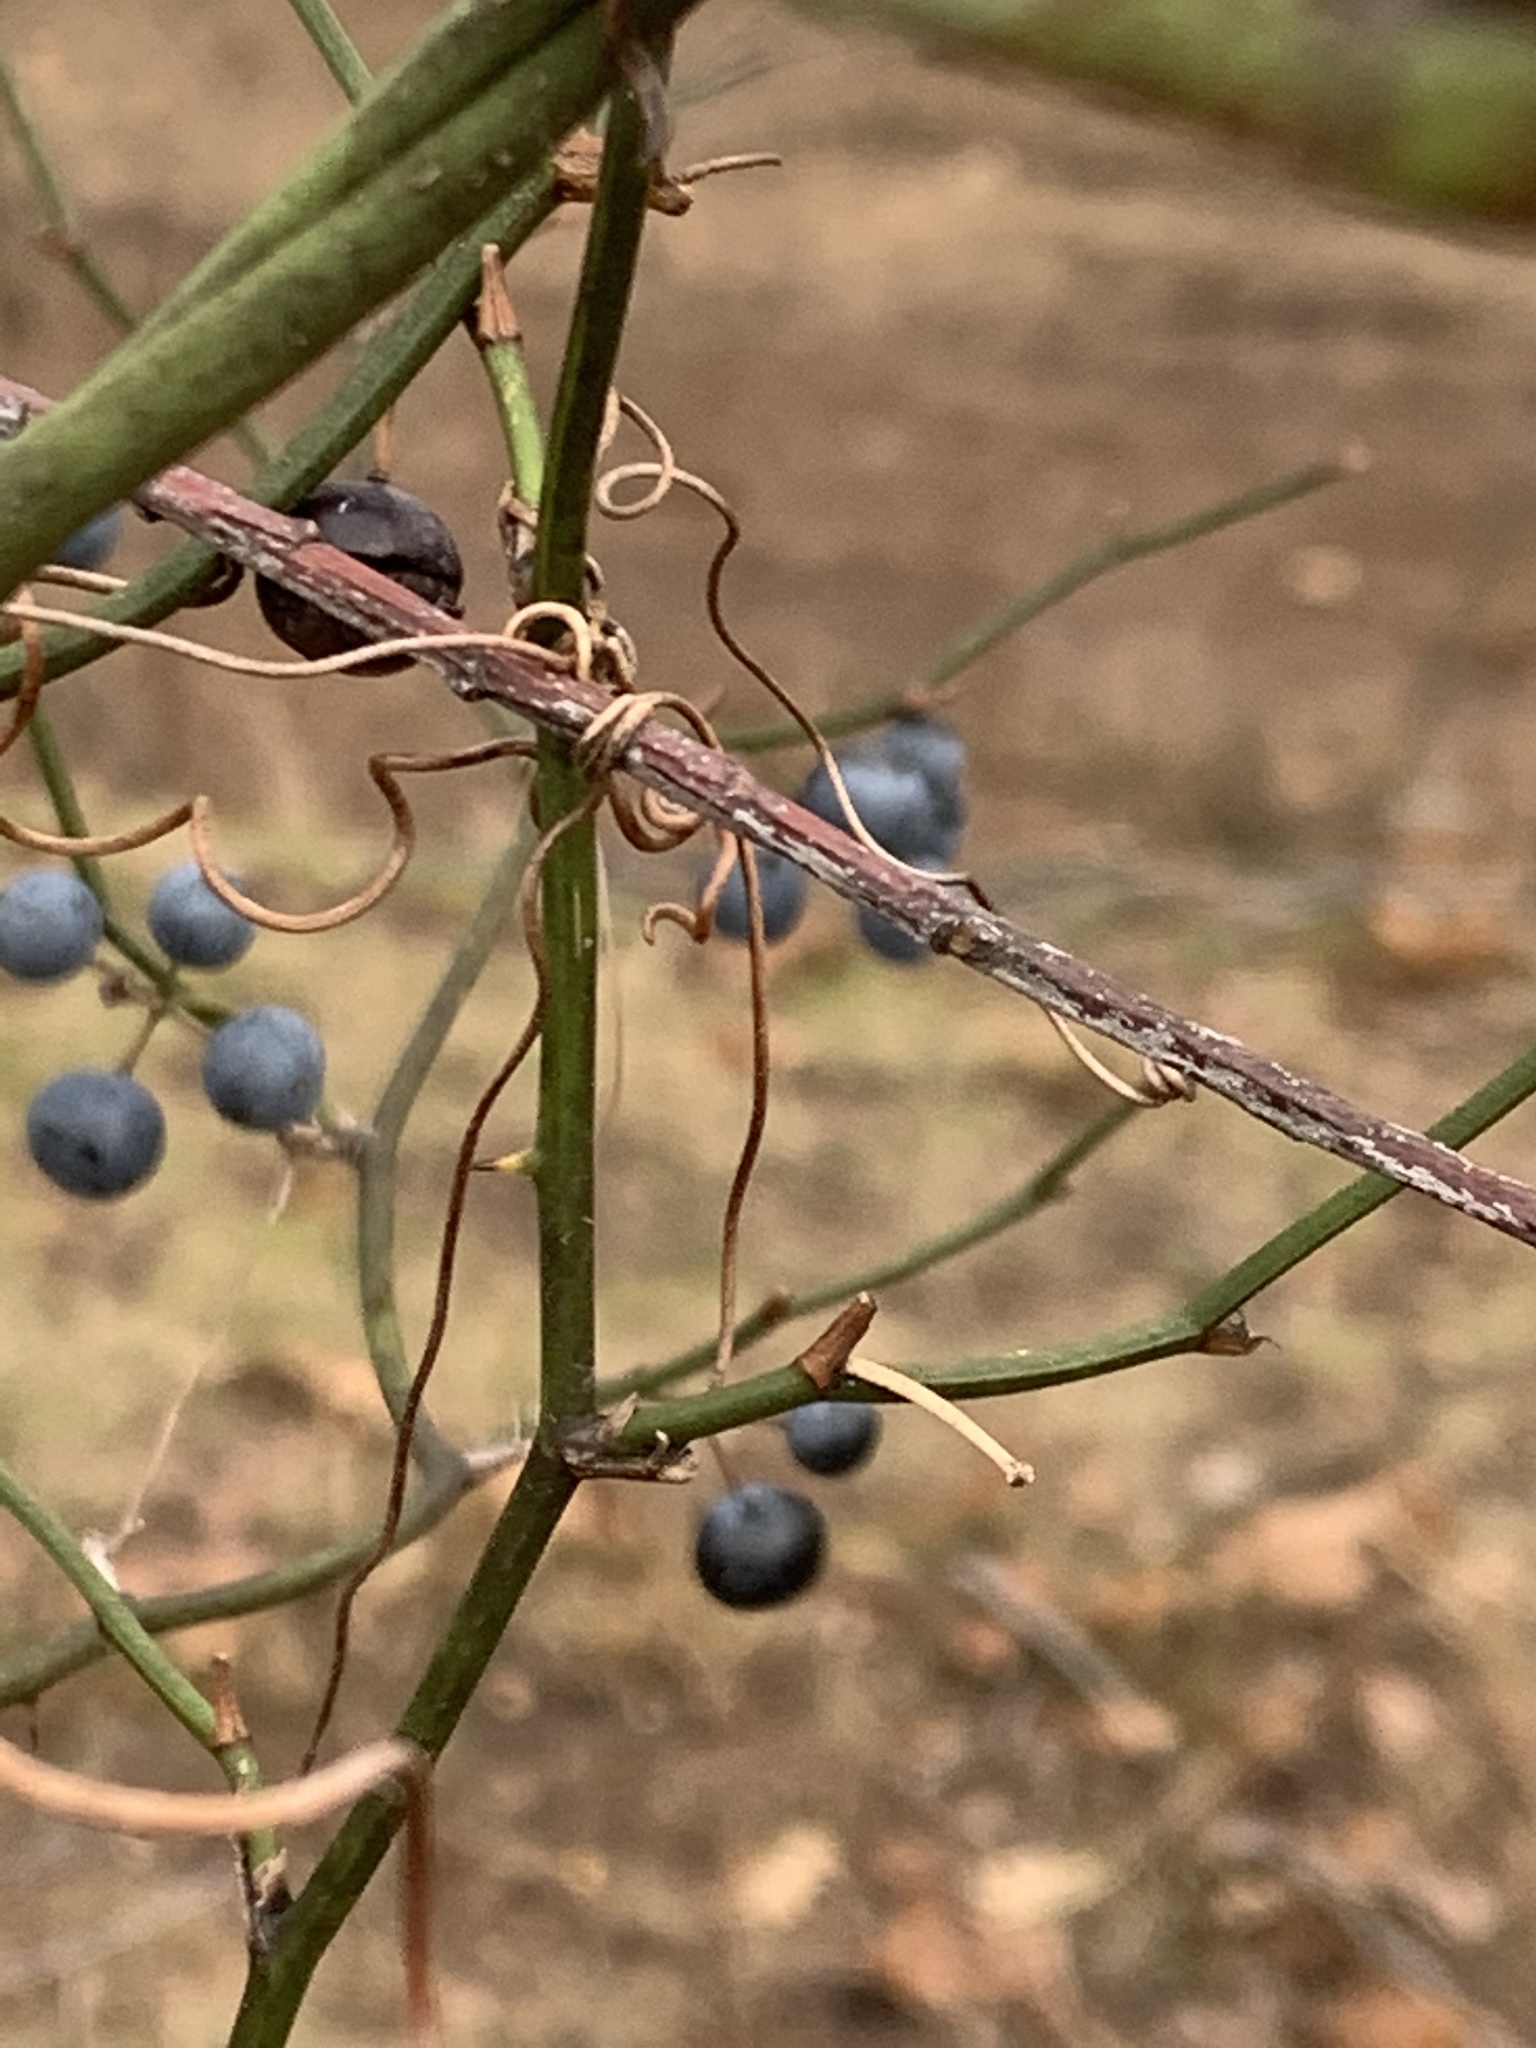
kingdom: Plantae
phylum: Tracheophyta
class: Liliopsida
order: Liliales
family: Smilacaceae
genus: Smilax
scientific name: Smilax rotundifolia
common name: Bullbriar
